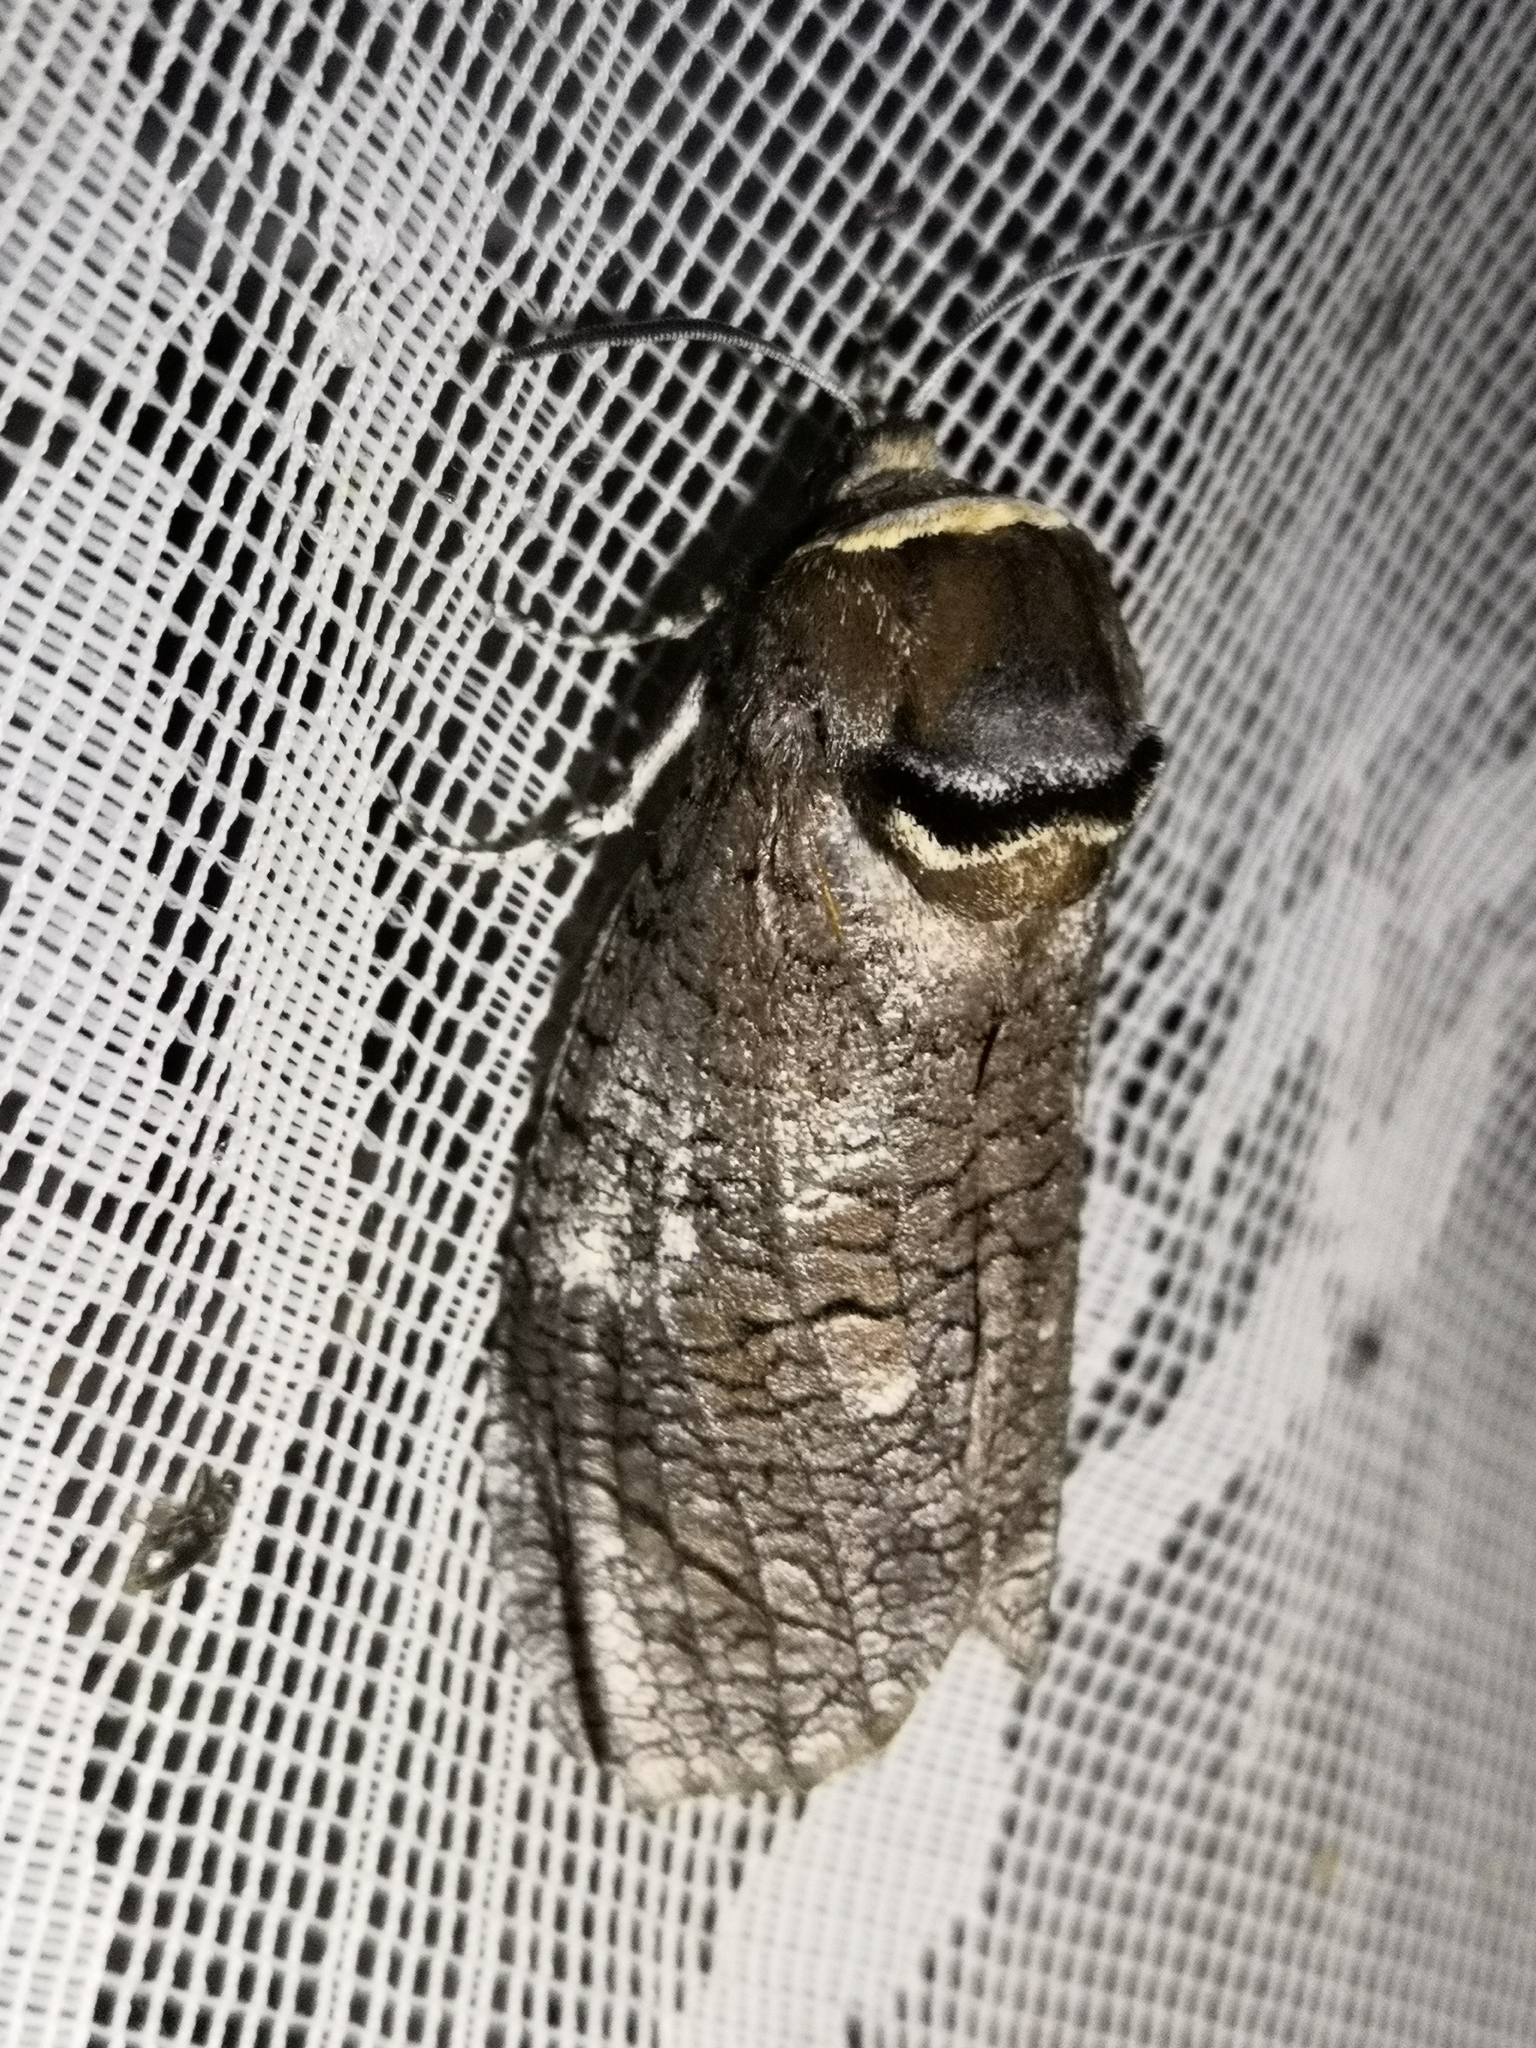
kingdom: Animalia
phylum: Arthropoda
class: Insecta
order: Lepidoptera
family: Cossidae
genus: Cossus
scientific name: Cossus cossus
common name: Goat moth
